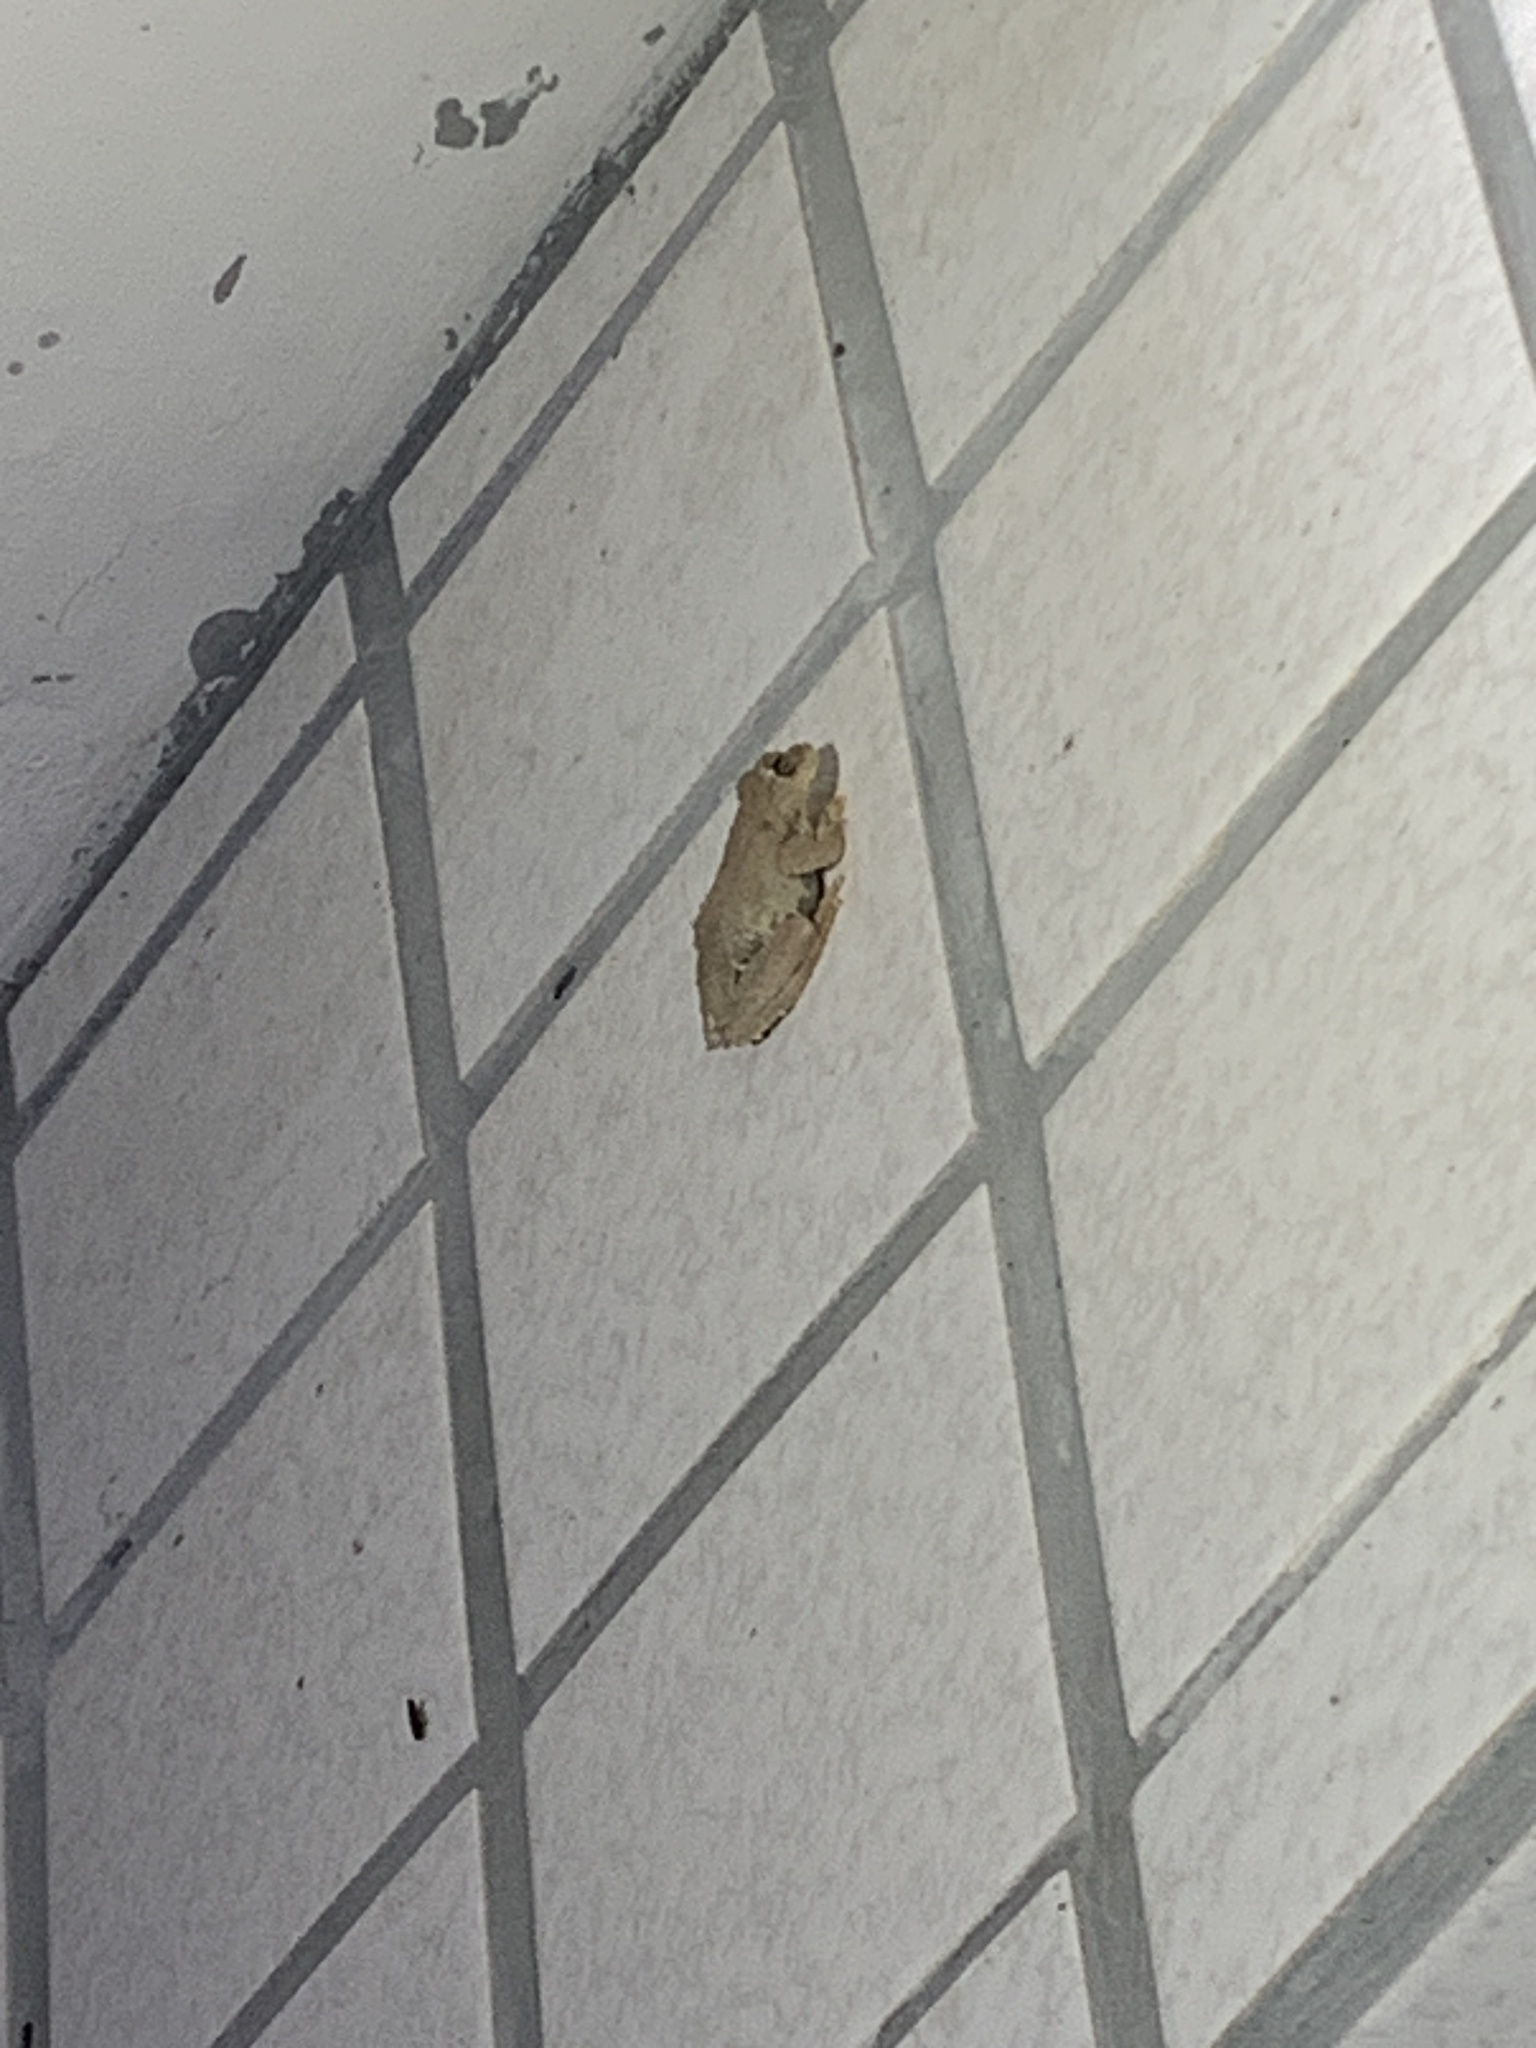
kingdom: Animalia
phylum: Chordata
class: Amphibia
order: Anura
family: Rhacophoridae
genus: Kurixalus
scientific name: Kurixalus eiffingeri
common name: Eiffinger’s treefrog
